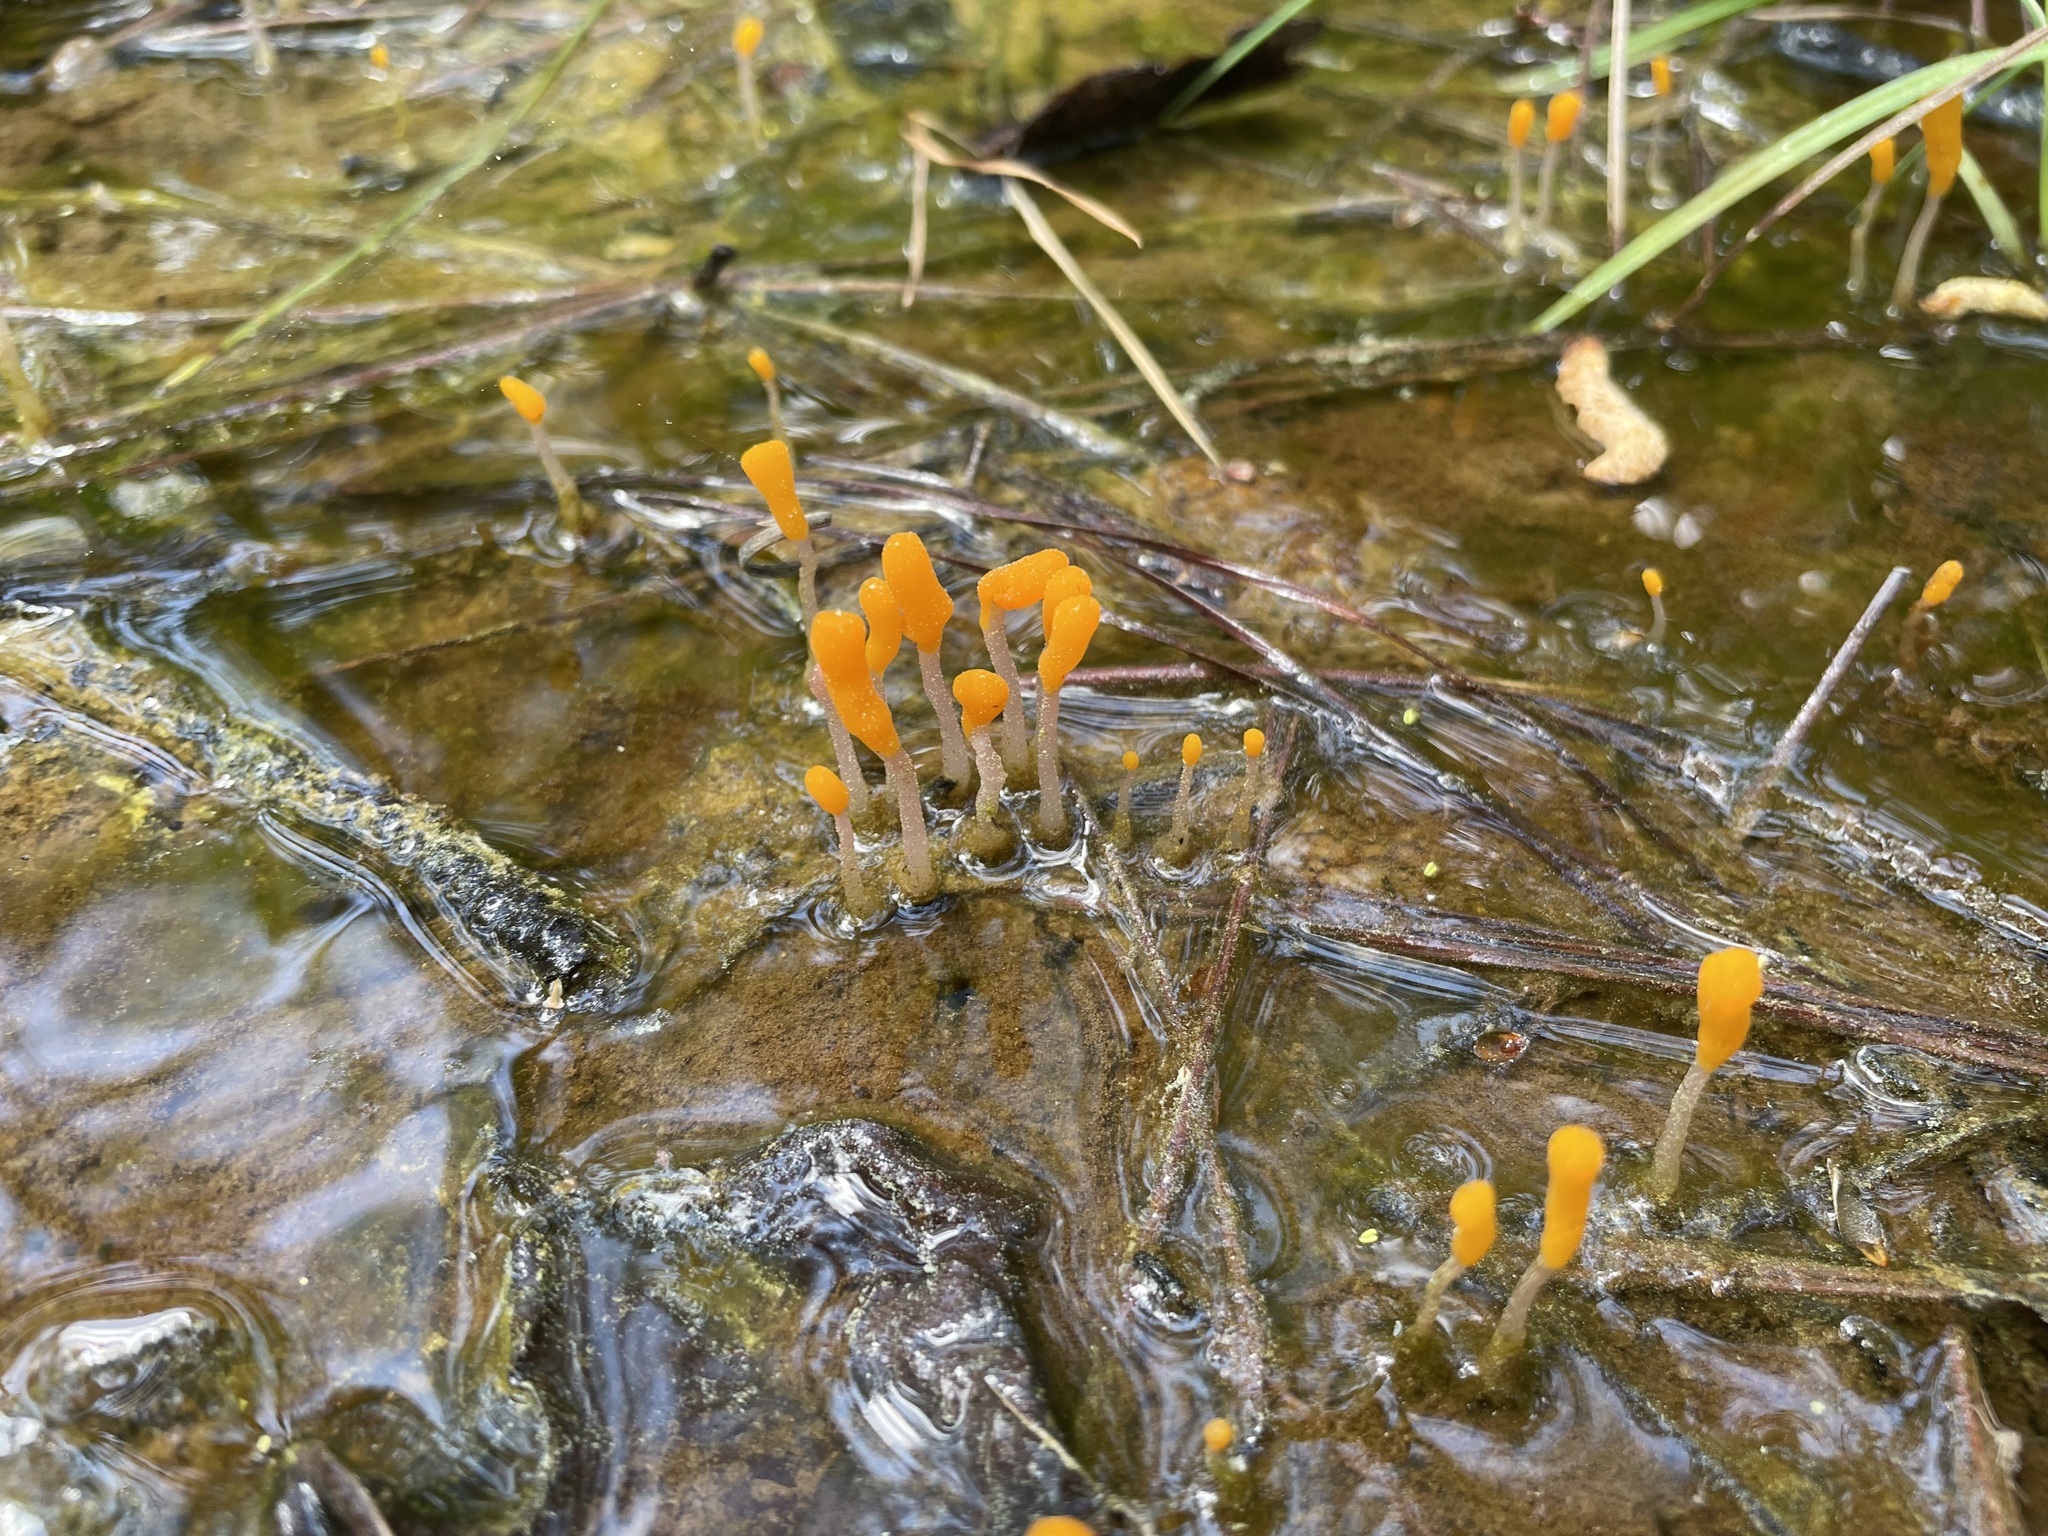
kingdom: Fungi
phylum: Ascomycota
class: Leotiomycetes
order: Helotiales
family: Sclerotiniaceae
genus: Mitrula
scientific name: Mitrula elegans
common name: Swamp beacon
